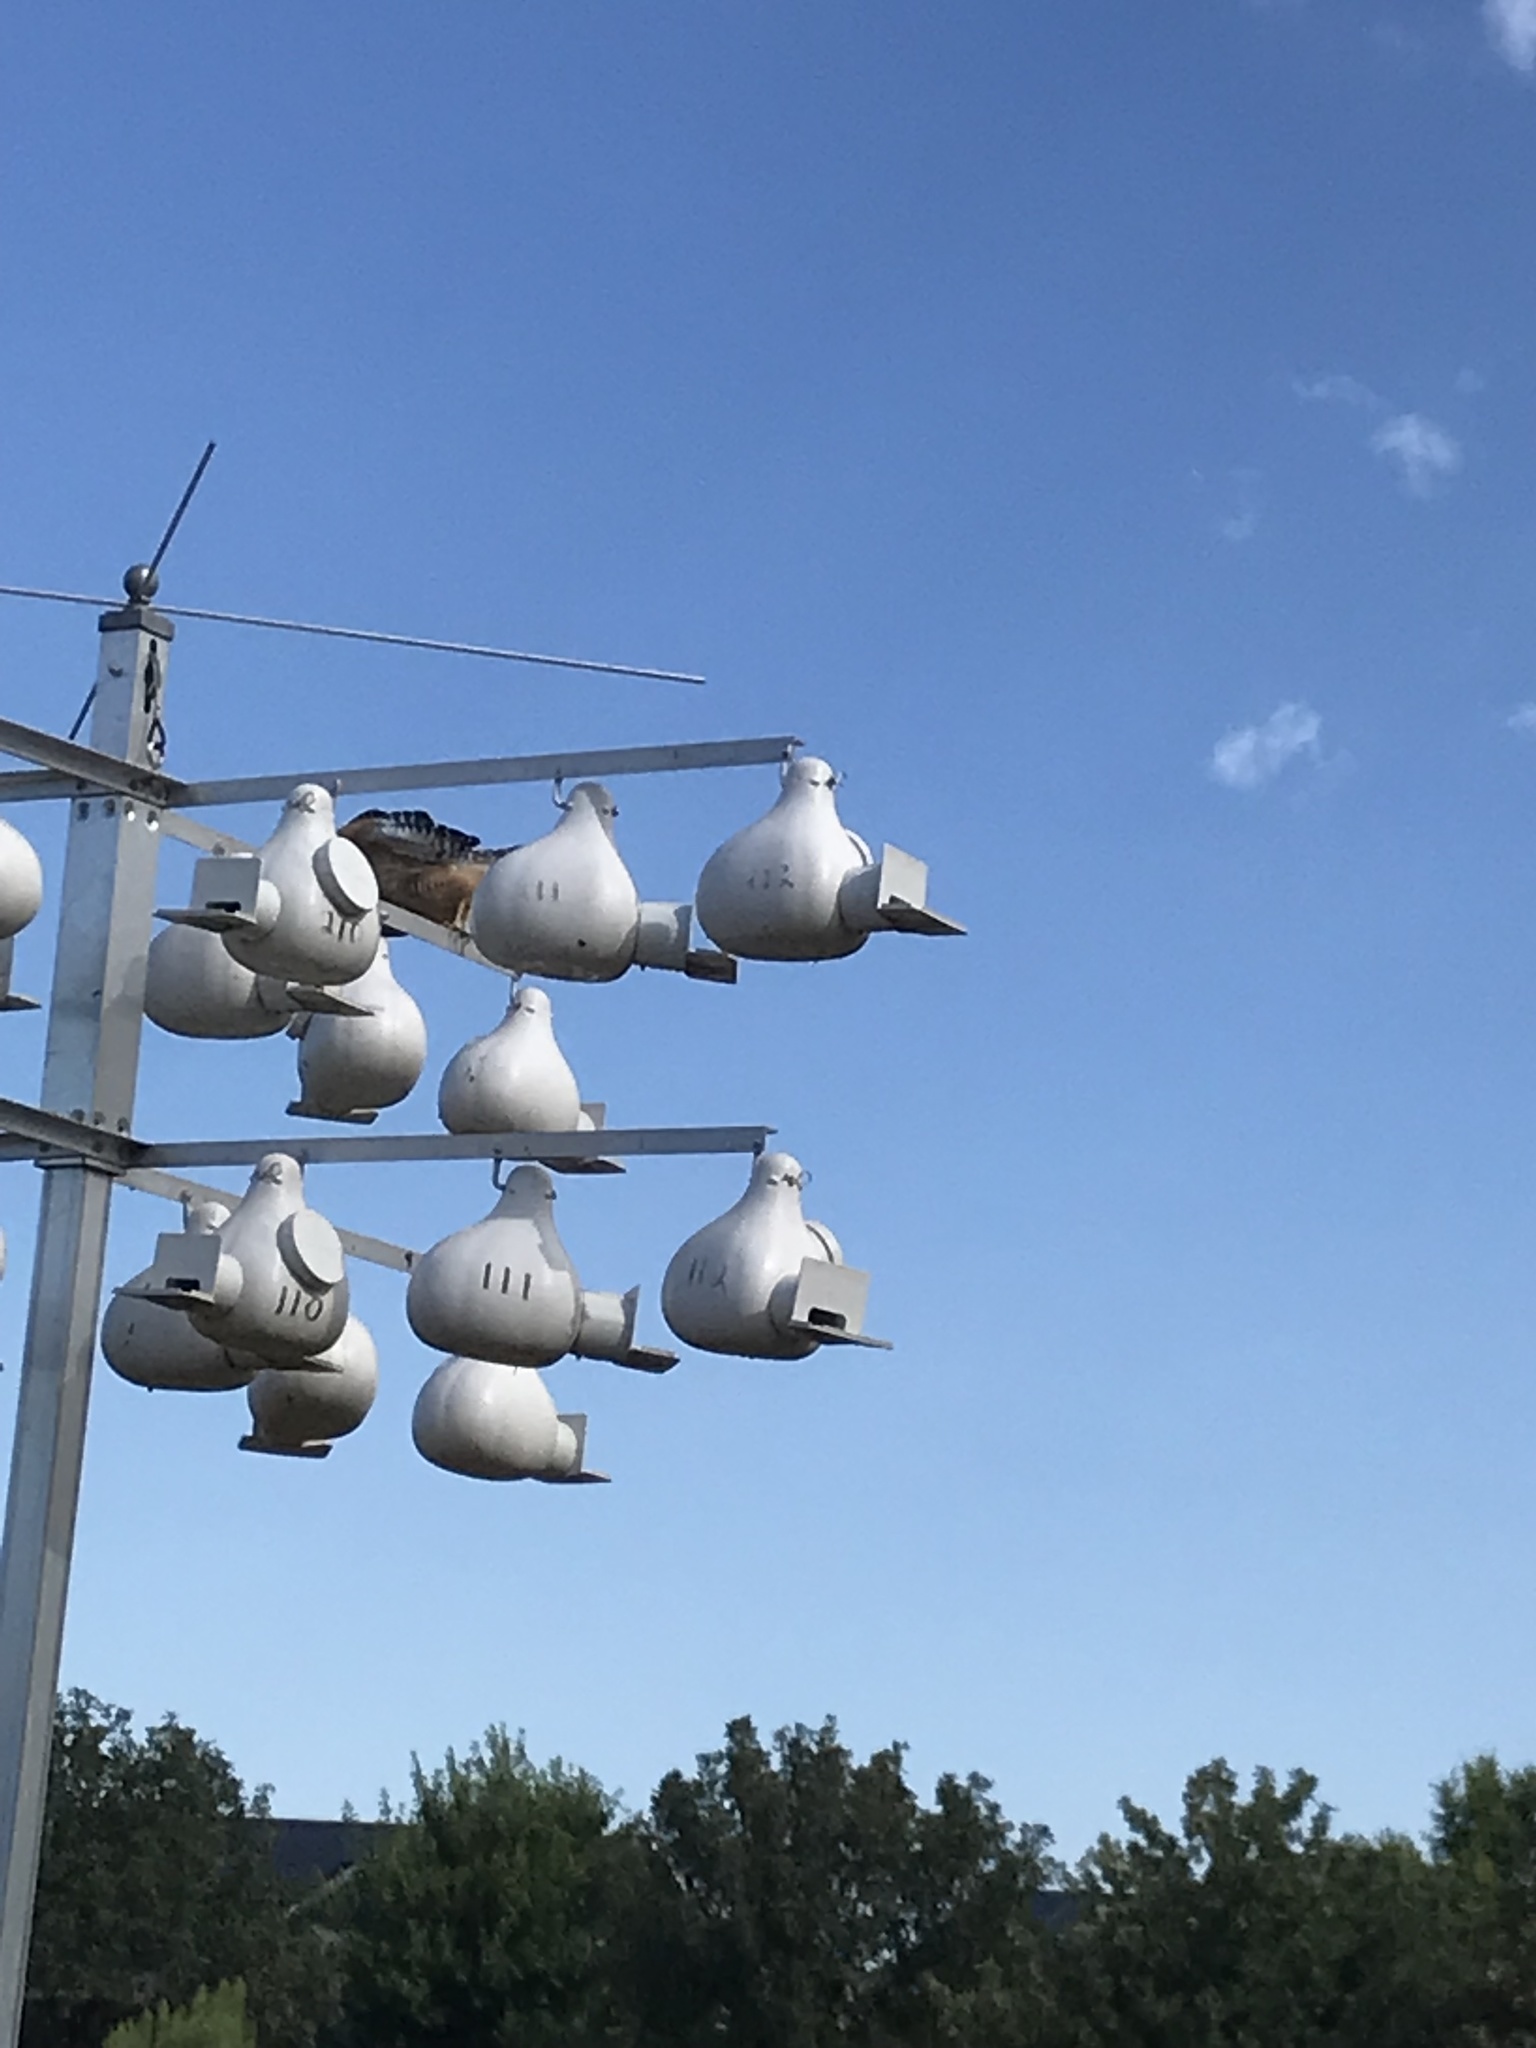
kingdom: Animalia
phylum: Chordata
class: Aves
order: Accipitriformes
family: Accipitridae
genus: Buteo
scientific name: Buteo lineatus
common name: Red-shouldered hawk
